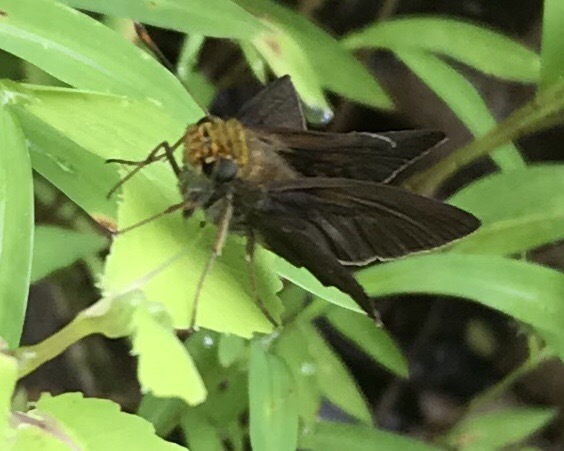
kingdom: Animalia
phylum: Arthropoda
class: Insecta
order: Lepidoptera
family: Hesperiidae
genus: Euphyes
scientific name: Euphyes vestris
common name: Dun skipper
